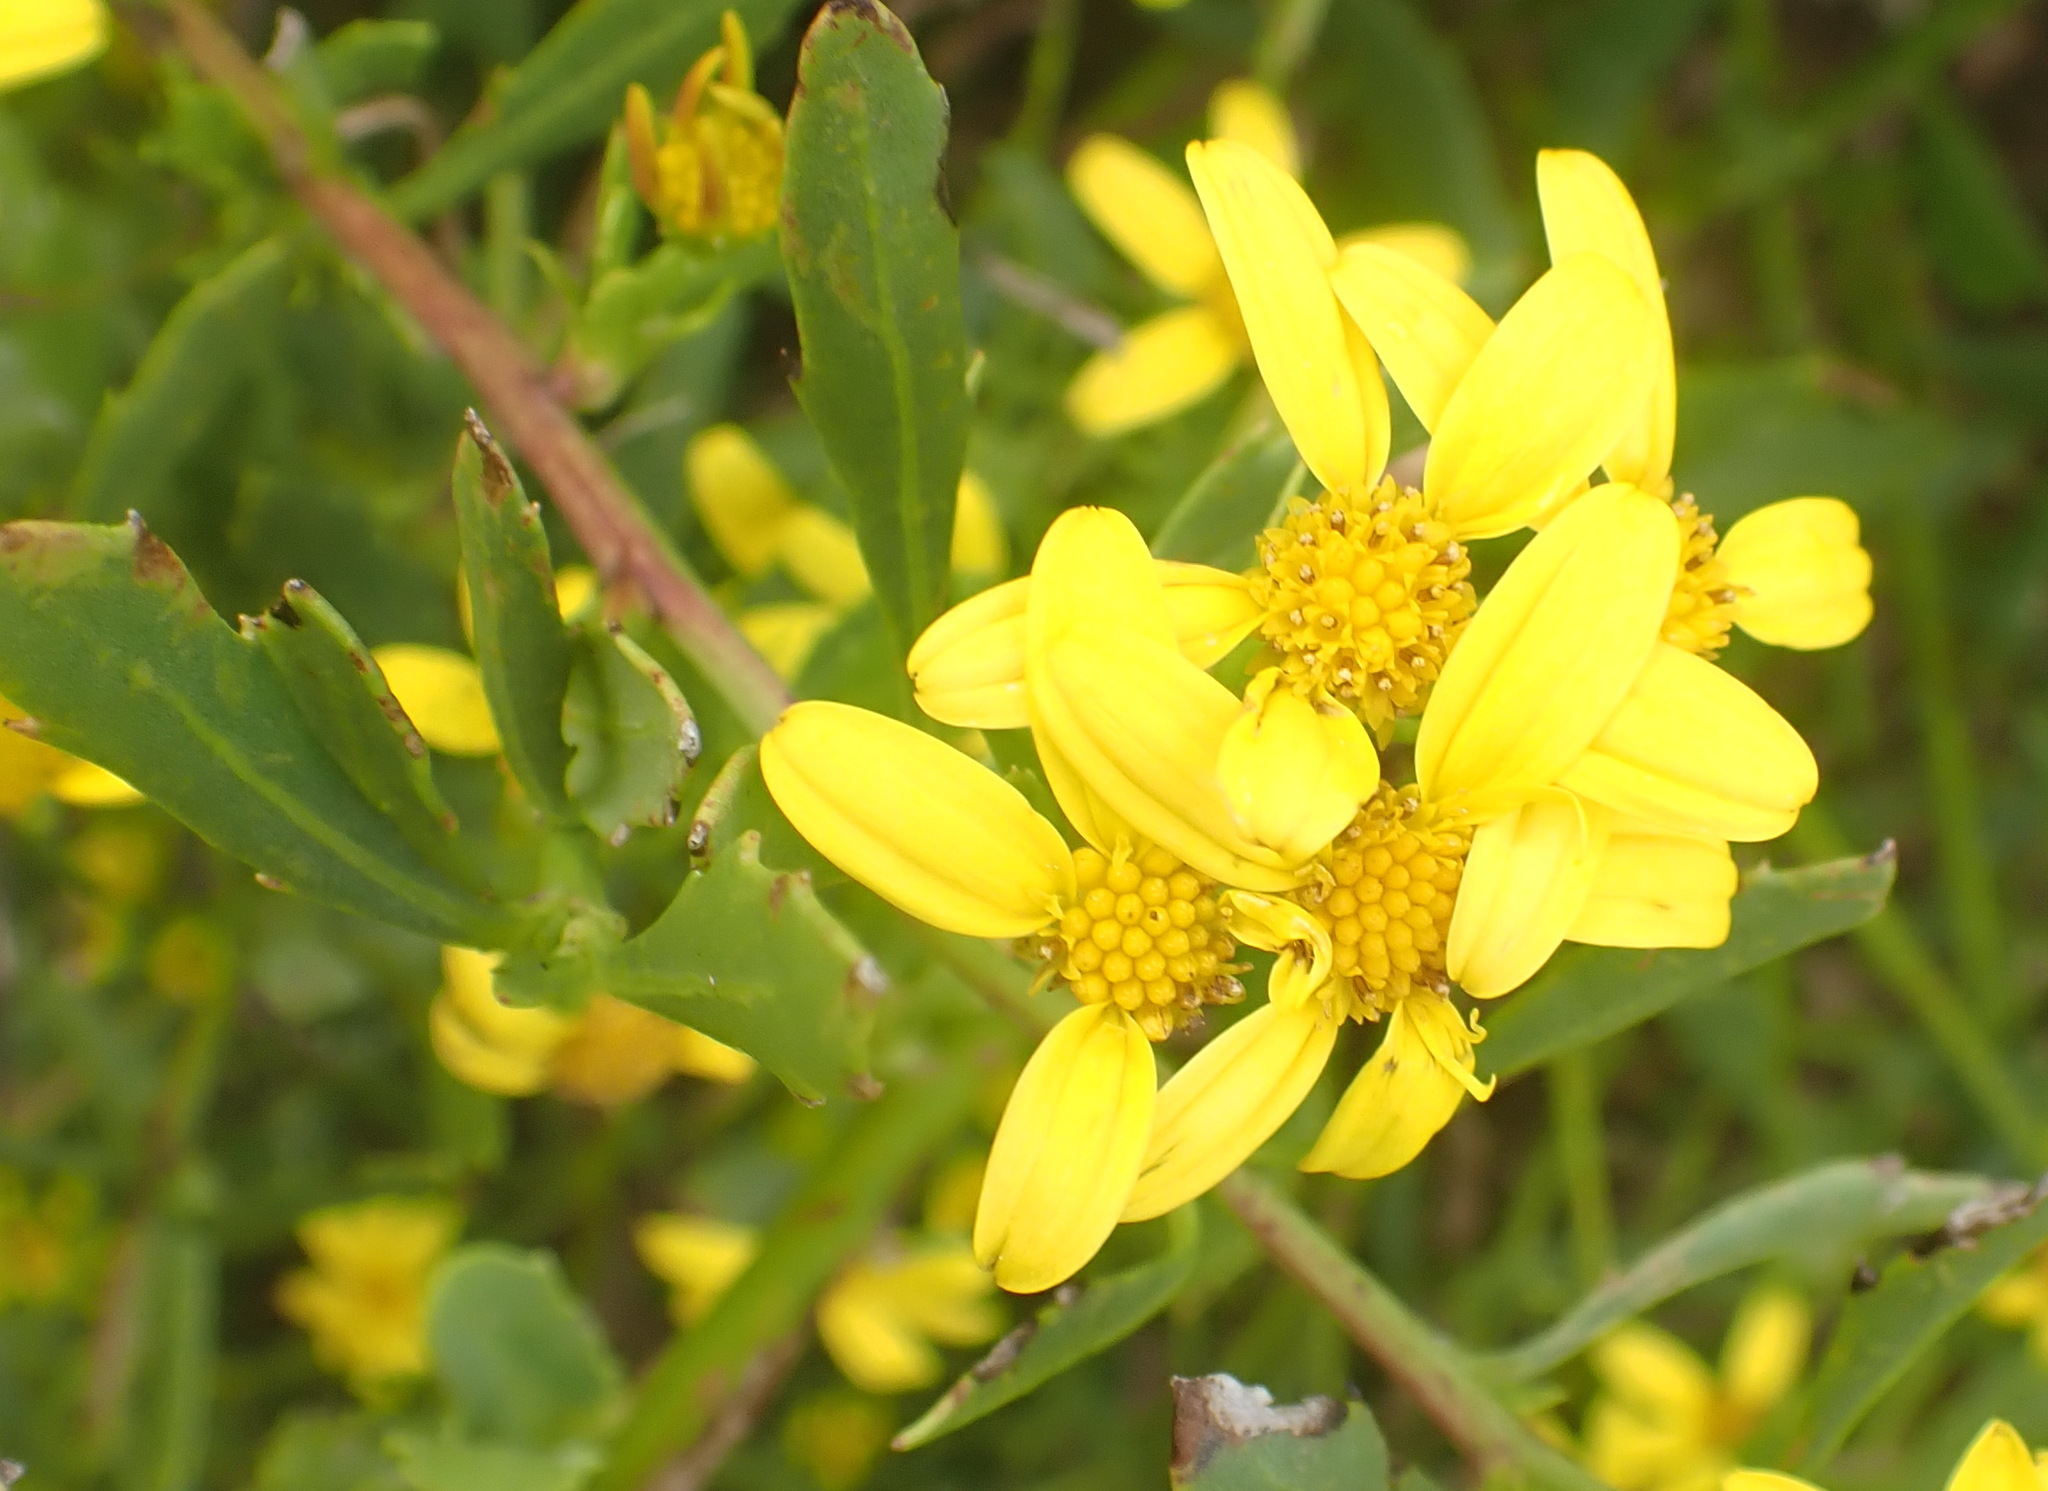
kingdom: Plantae
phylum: Tracheophyta
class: Magnoliopsida
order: Asterales
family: Asteraceae
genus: Osteospermum
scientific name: Osteospermum moniliferum
